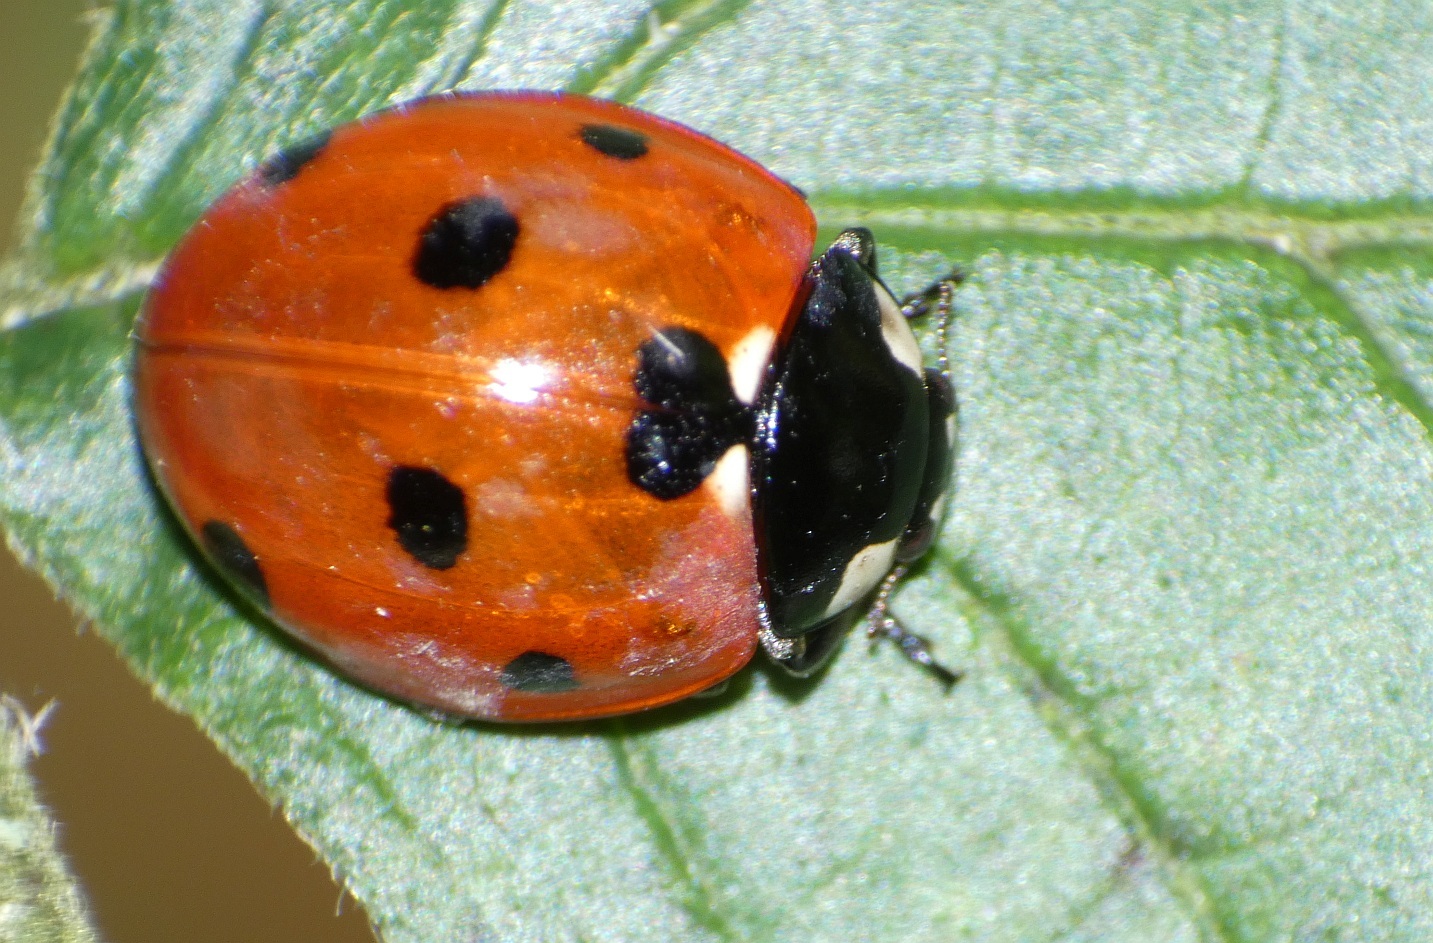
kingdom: Animalia
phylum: Arthropoda
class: Insecta
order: Coleoptera
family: Coccinellidae
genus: Coccinella
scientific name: Coccinella septempunctata
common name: Sevenspotted lady beetle
